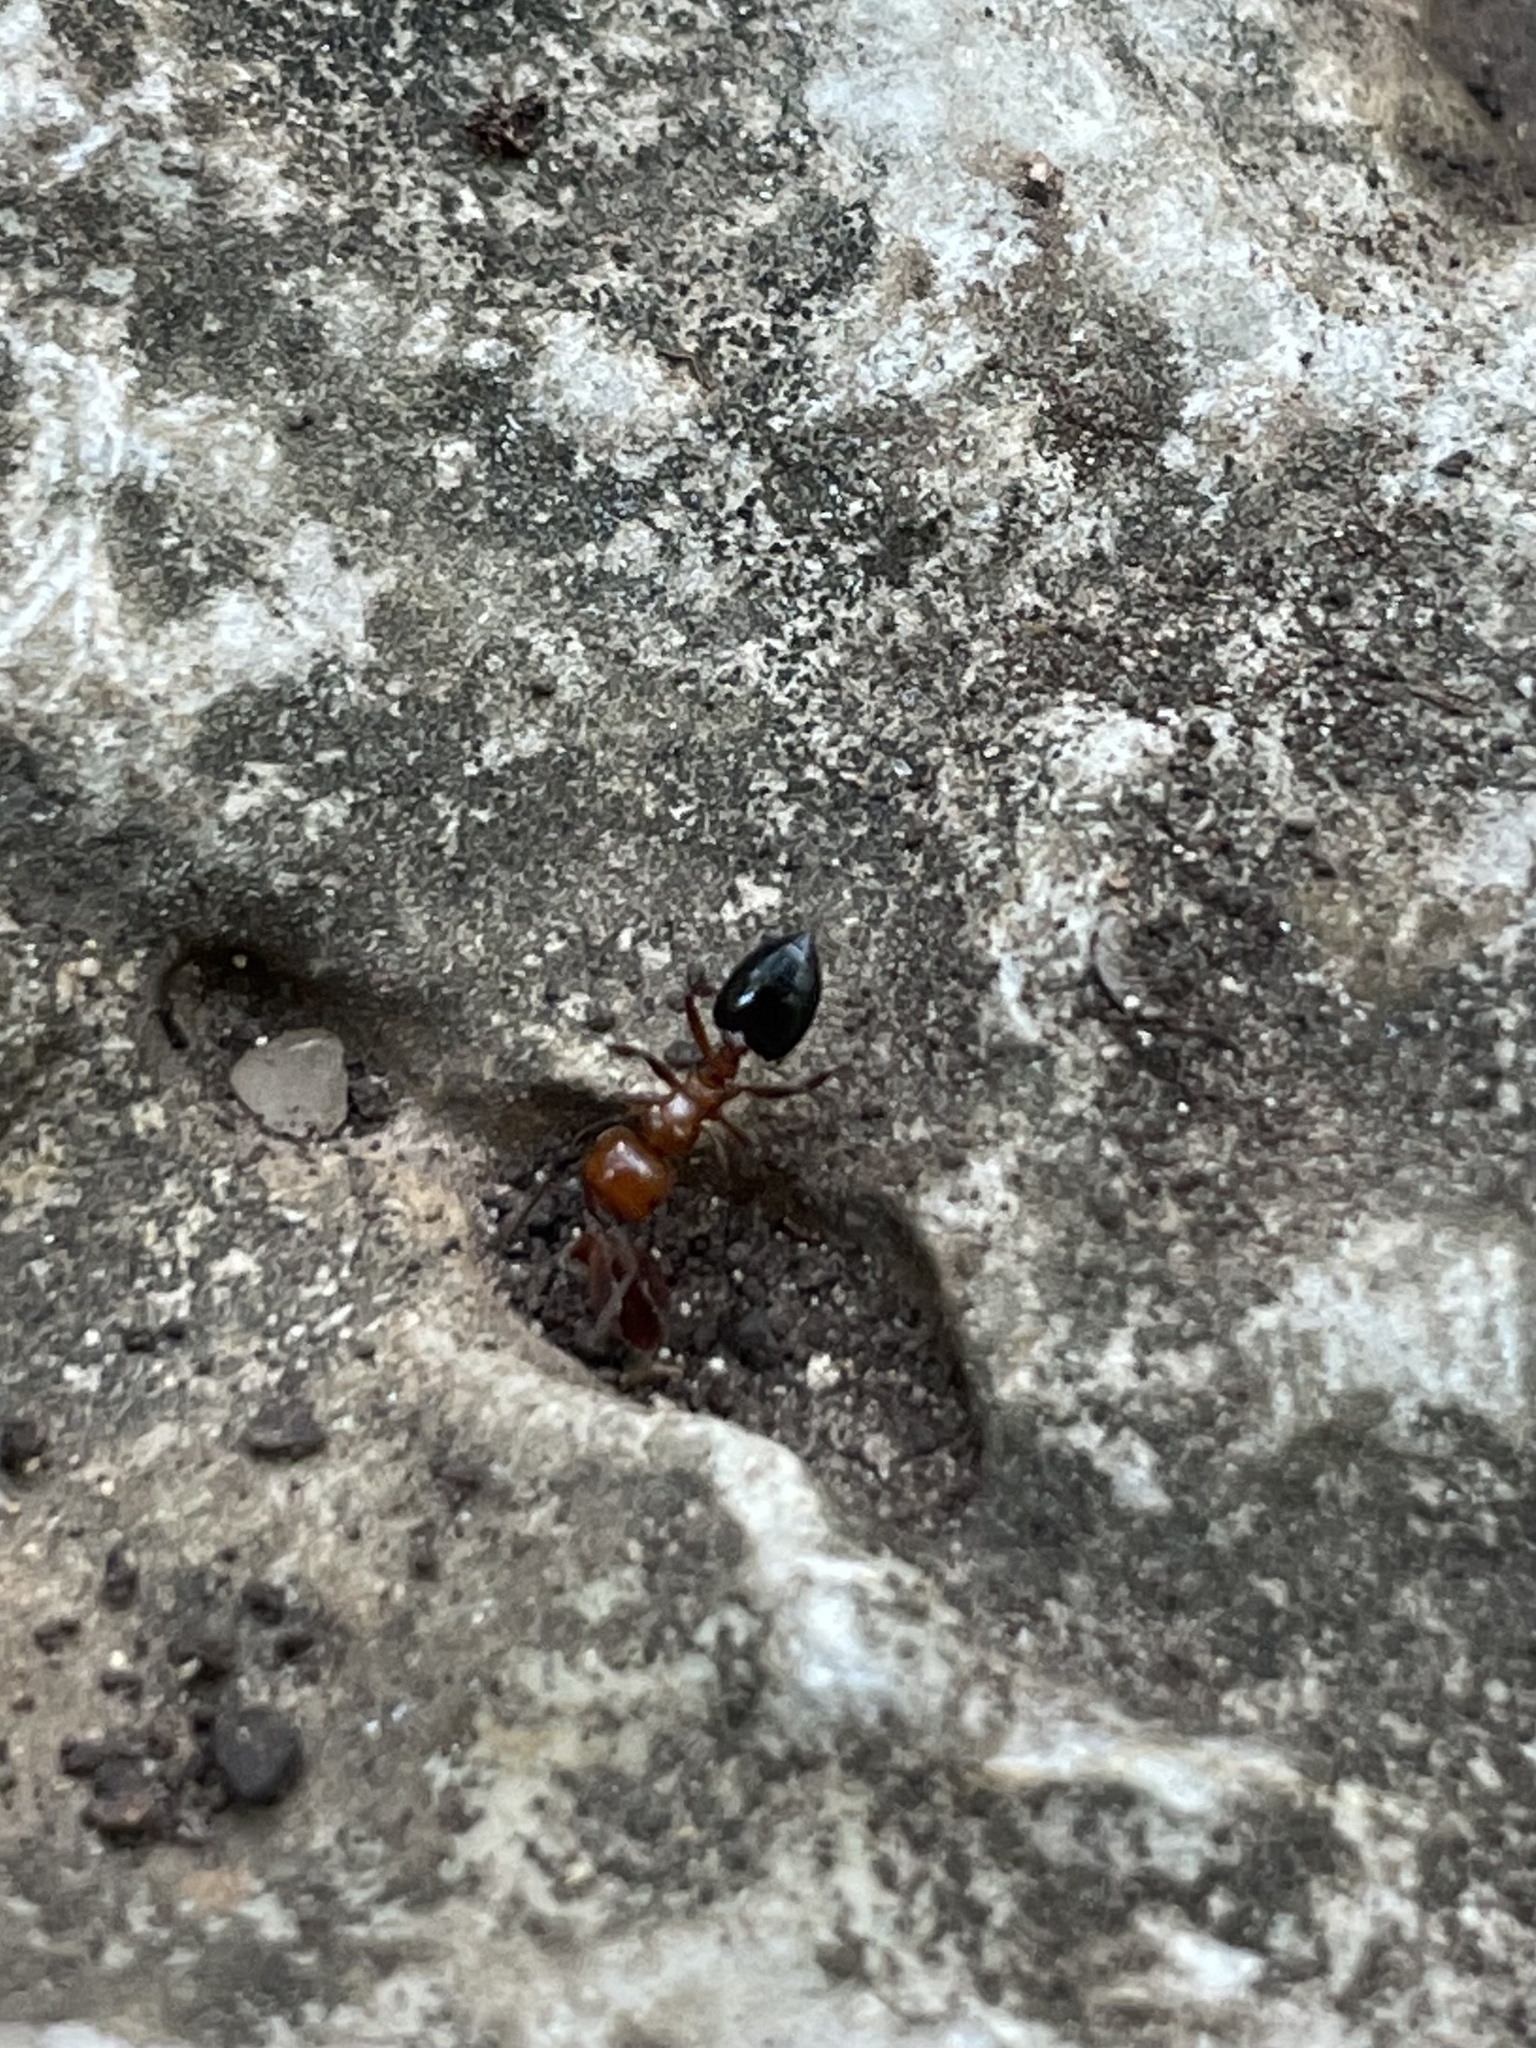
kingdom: Animalia
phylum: Arthropoda
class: Insecta
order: Hymenoptera
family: Formicidae
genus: Crematogaster
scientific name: Crematogaster laeviuscula
